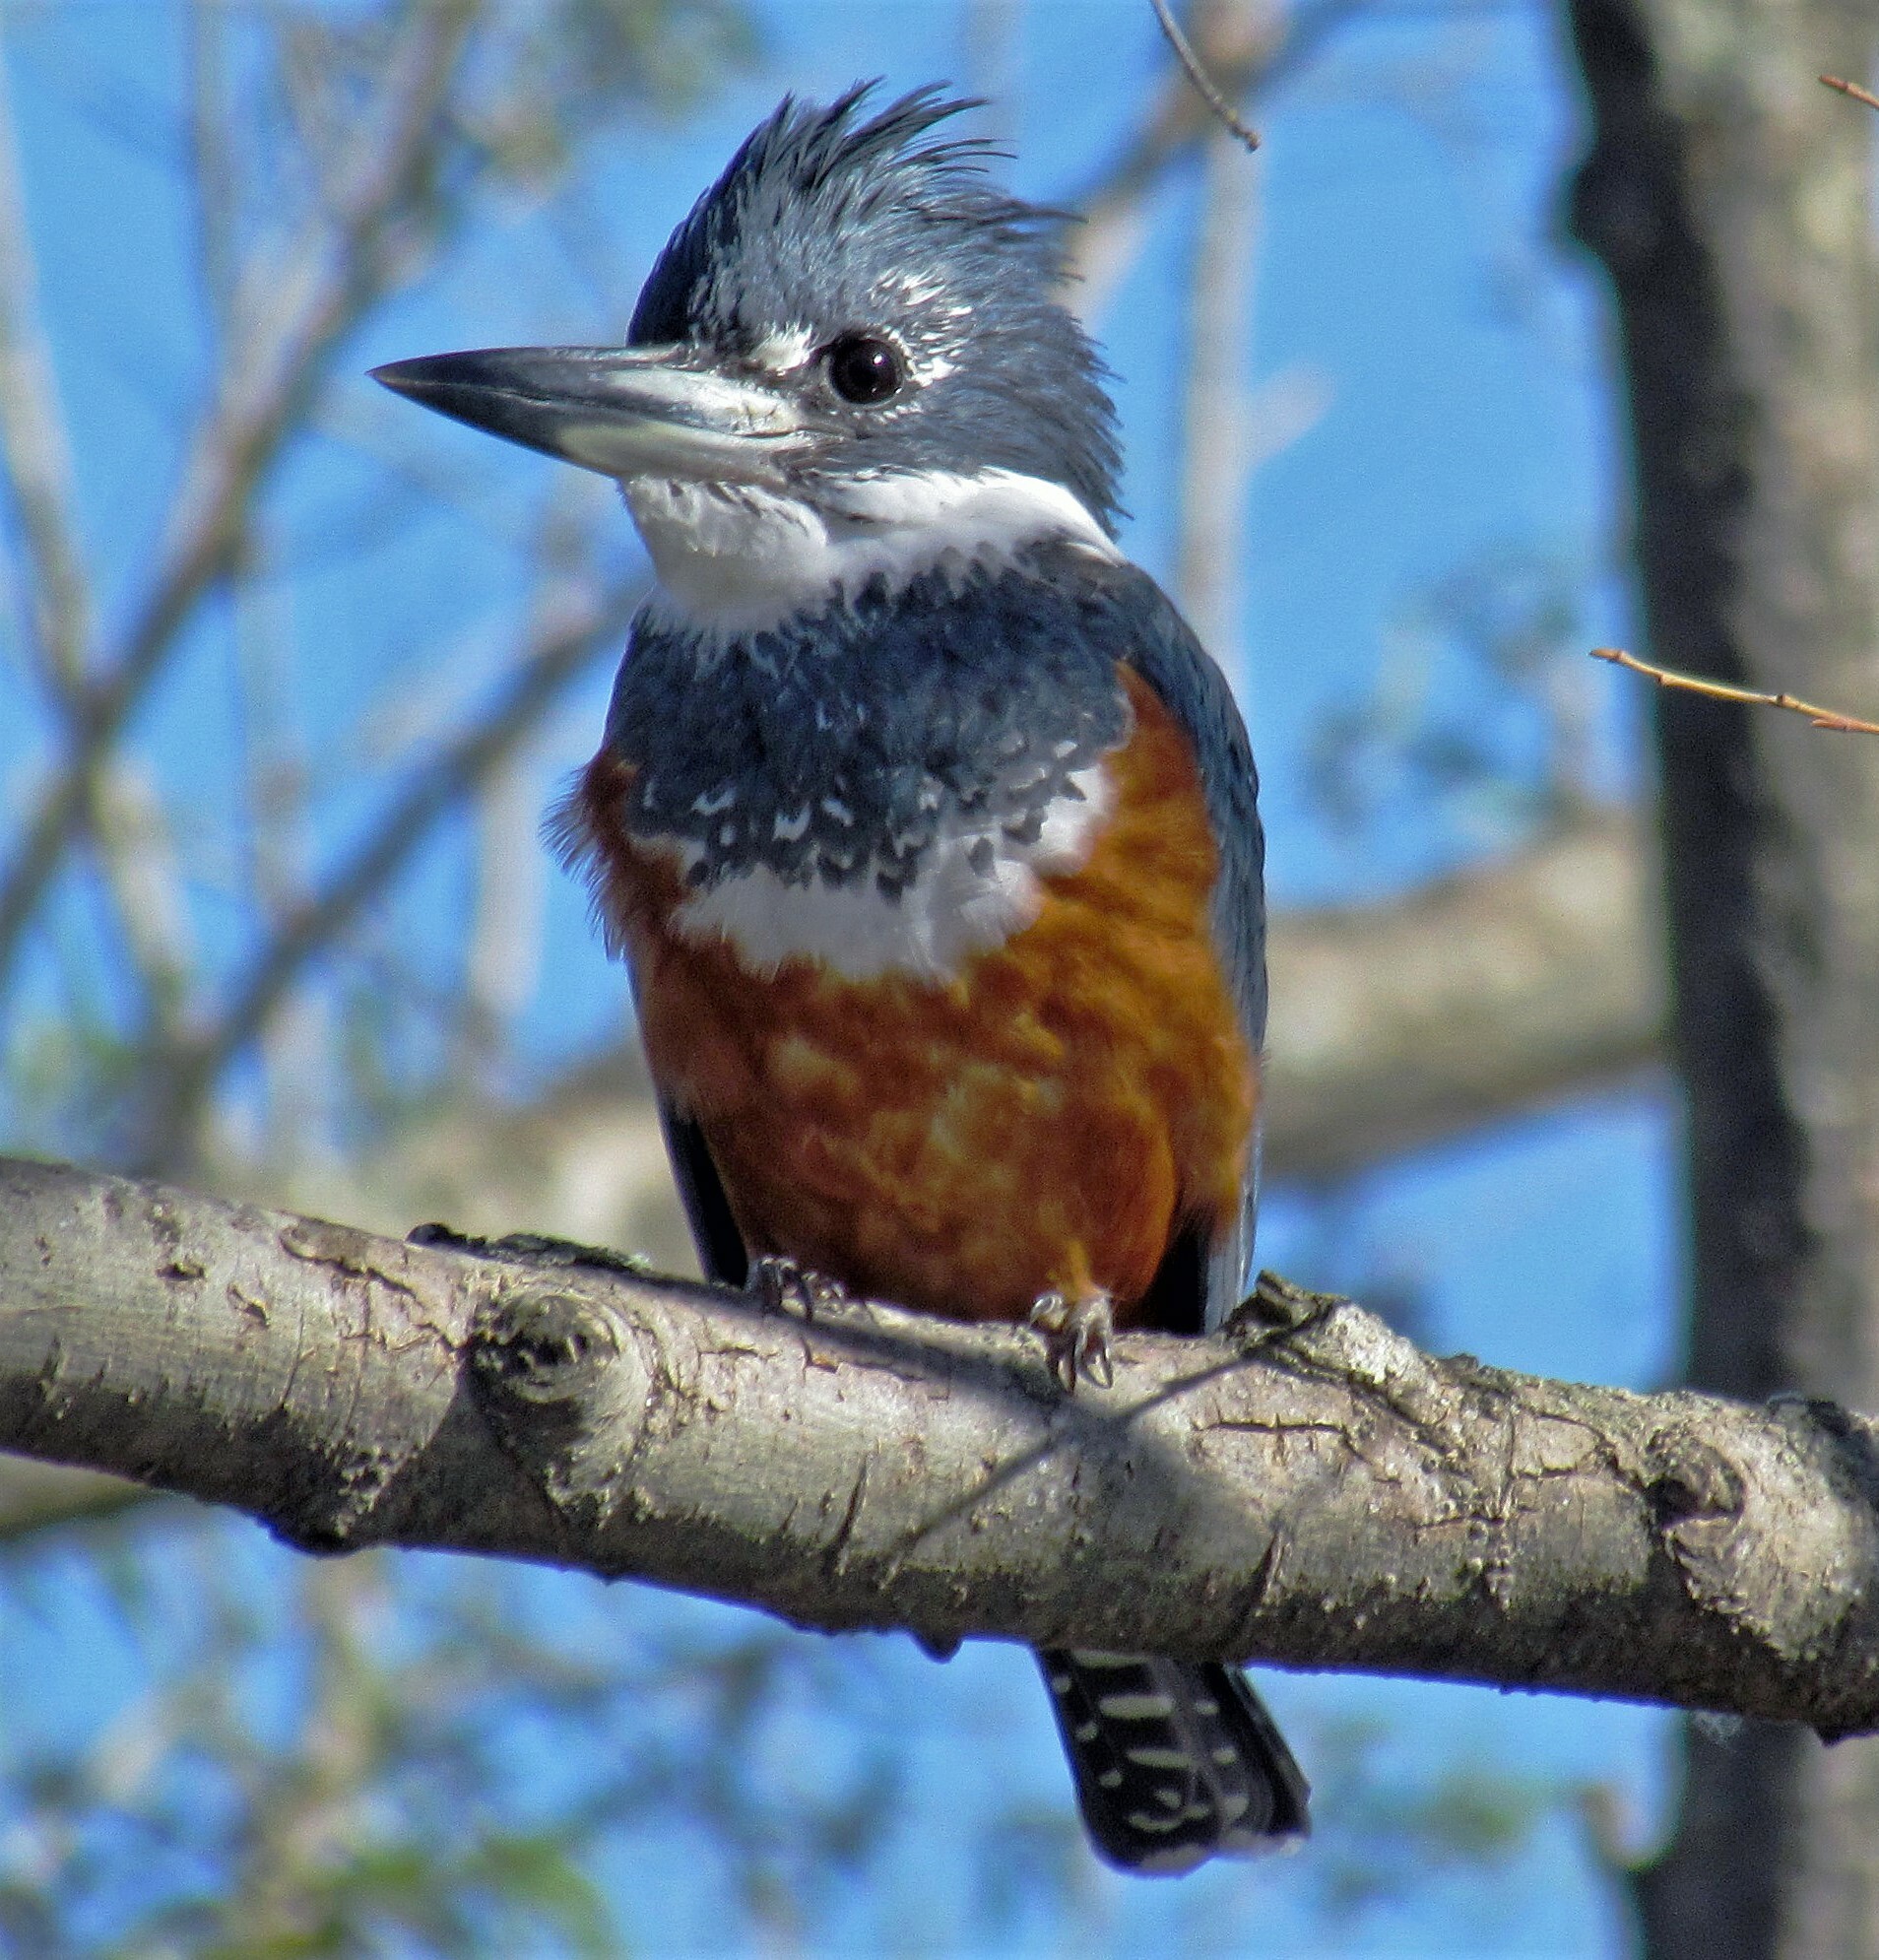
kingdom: Animalia
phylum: Chordata
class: Aves
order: Coraciiformes
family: Alcedinidae
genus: Megaceryle
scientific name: Megaceryle torquata
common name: Ringed kingfisher
